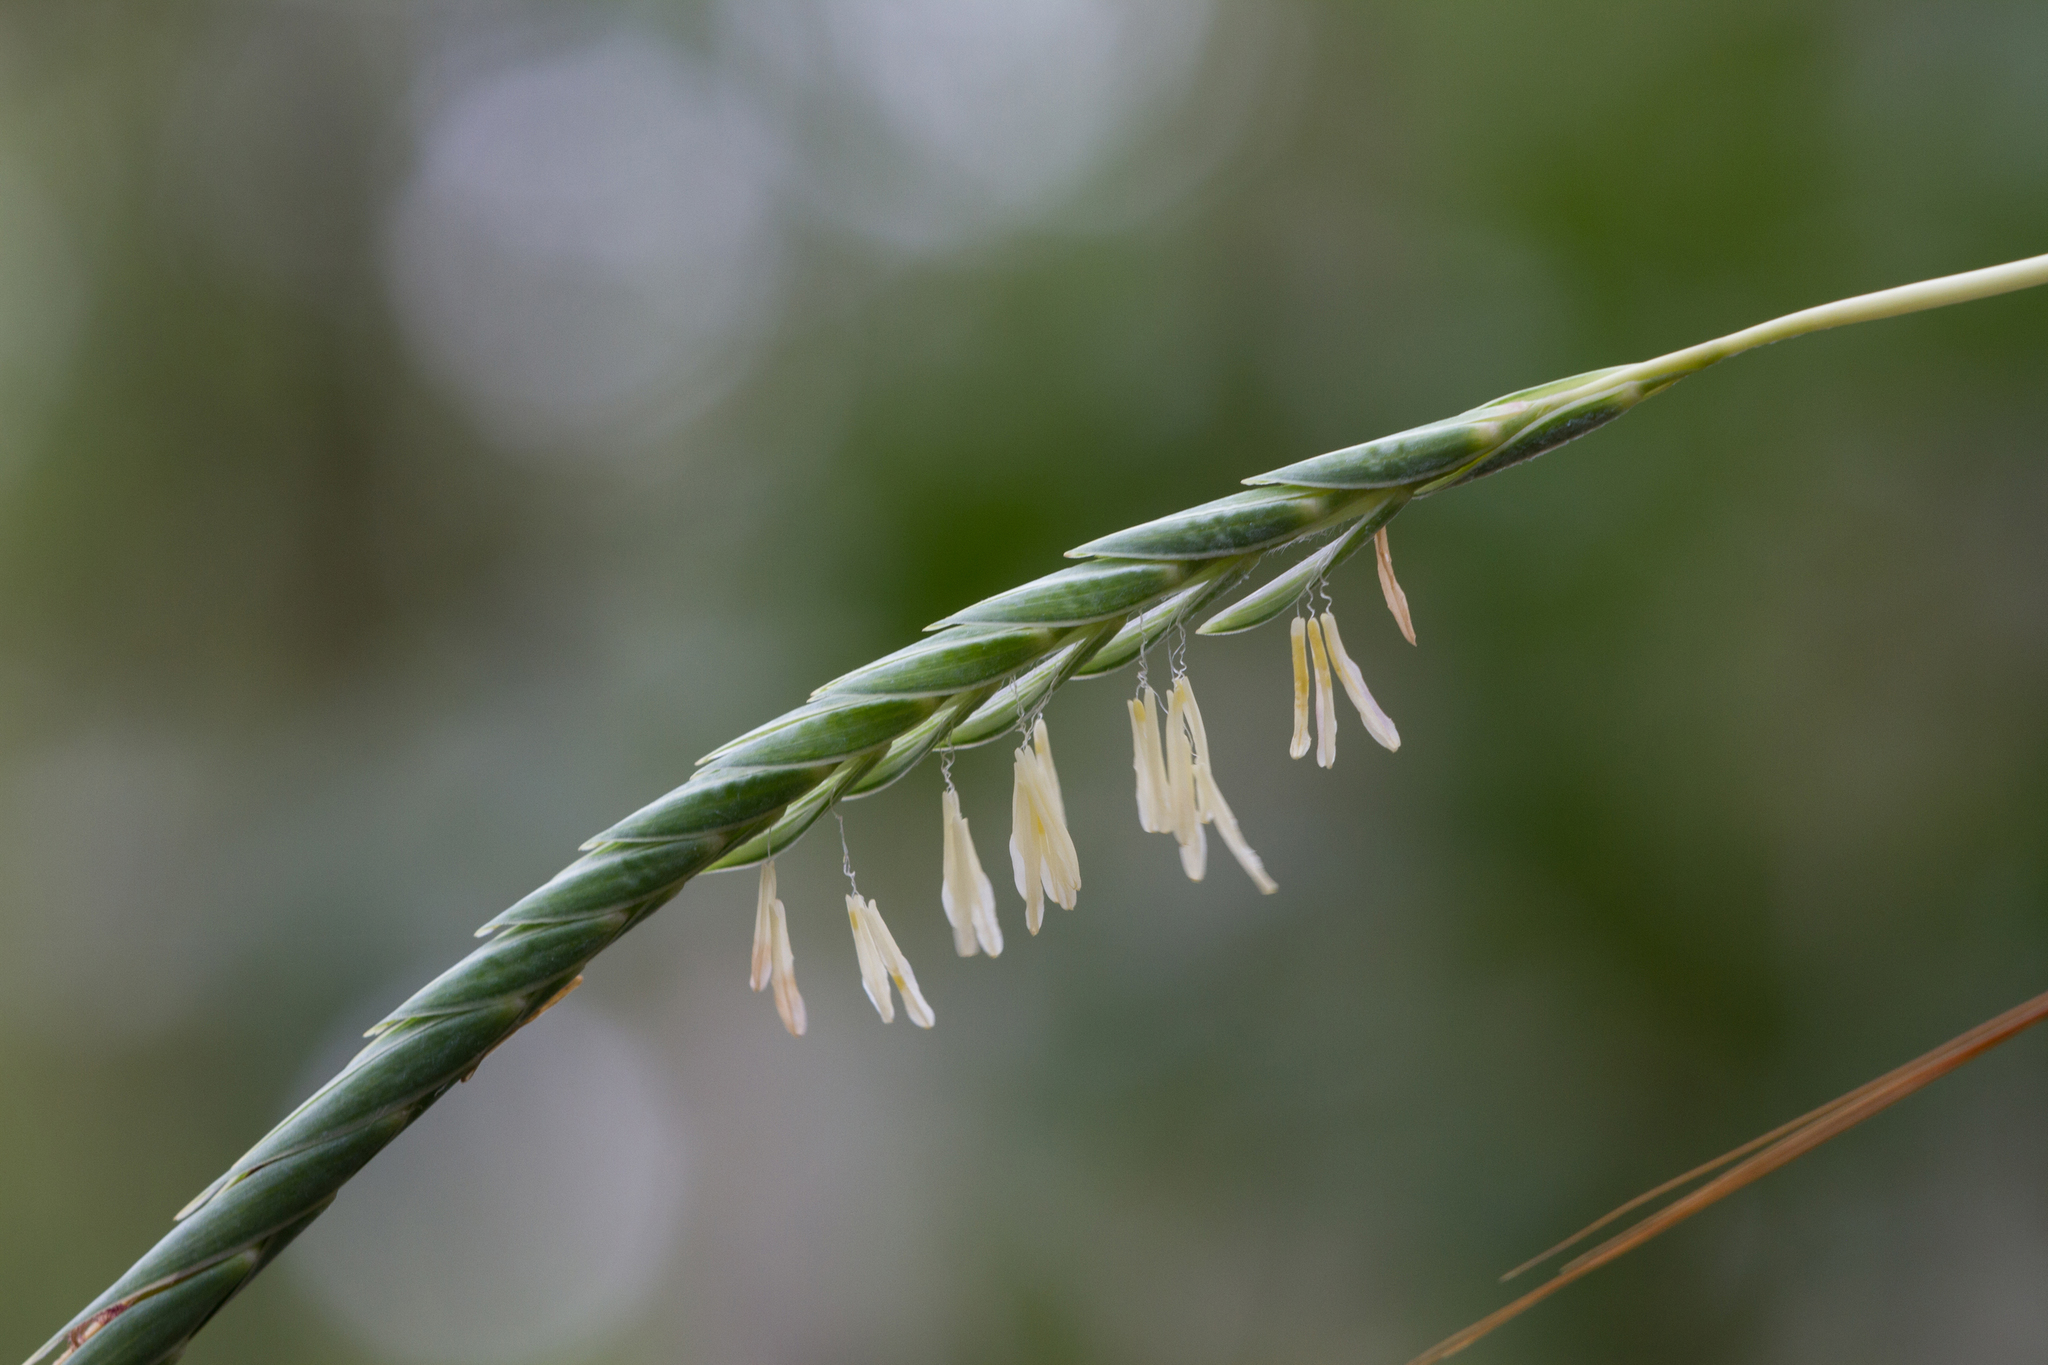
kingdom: Plantae
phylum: Tracheophyta
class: Liliopsida
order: Poales
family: Poaceae
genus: Heteropogon
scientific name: Heteropogon triticeus
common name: Sugar grass
